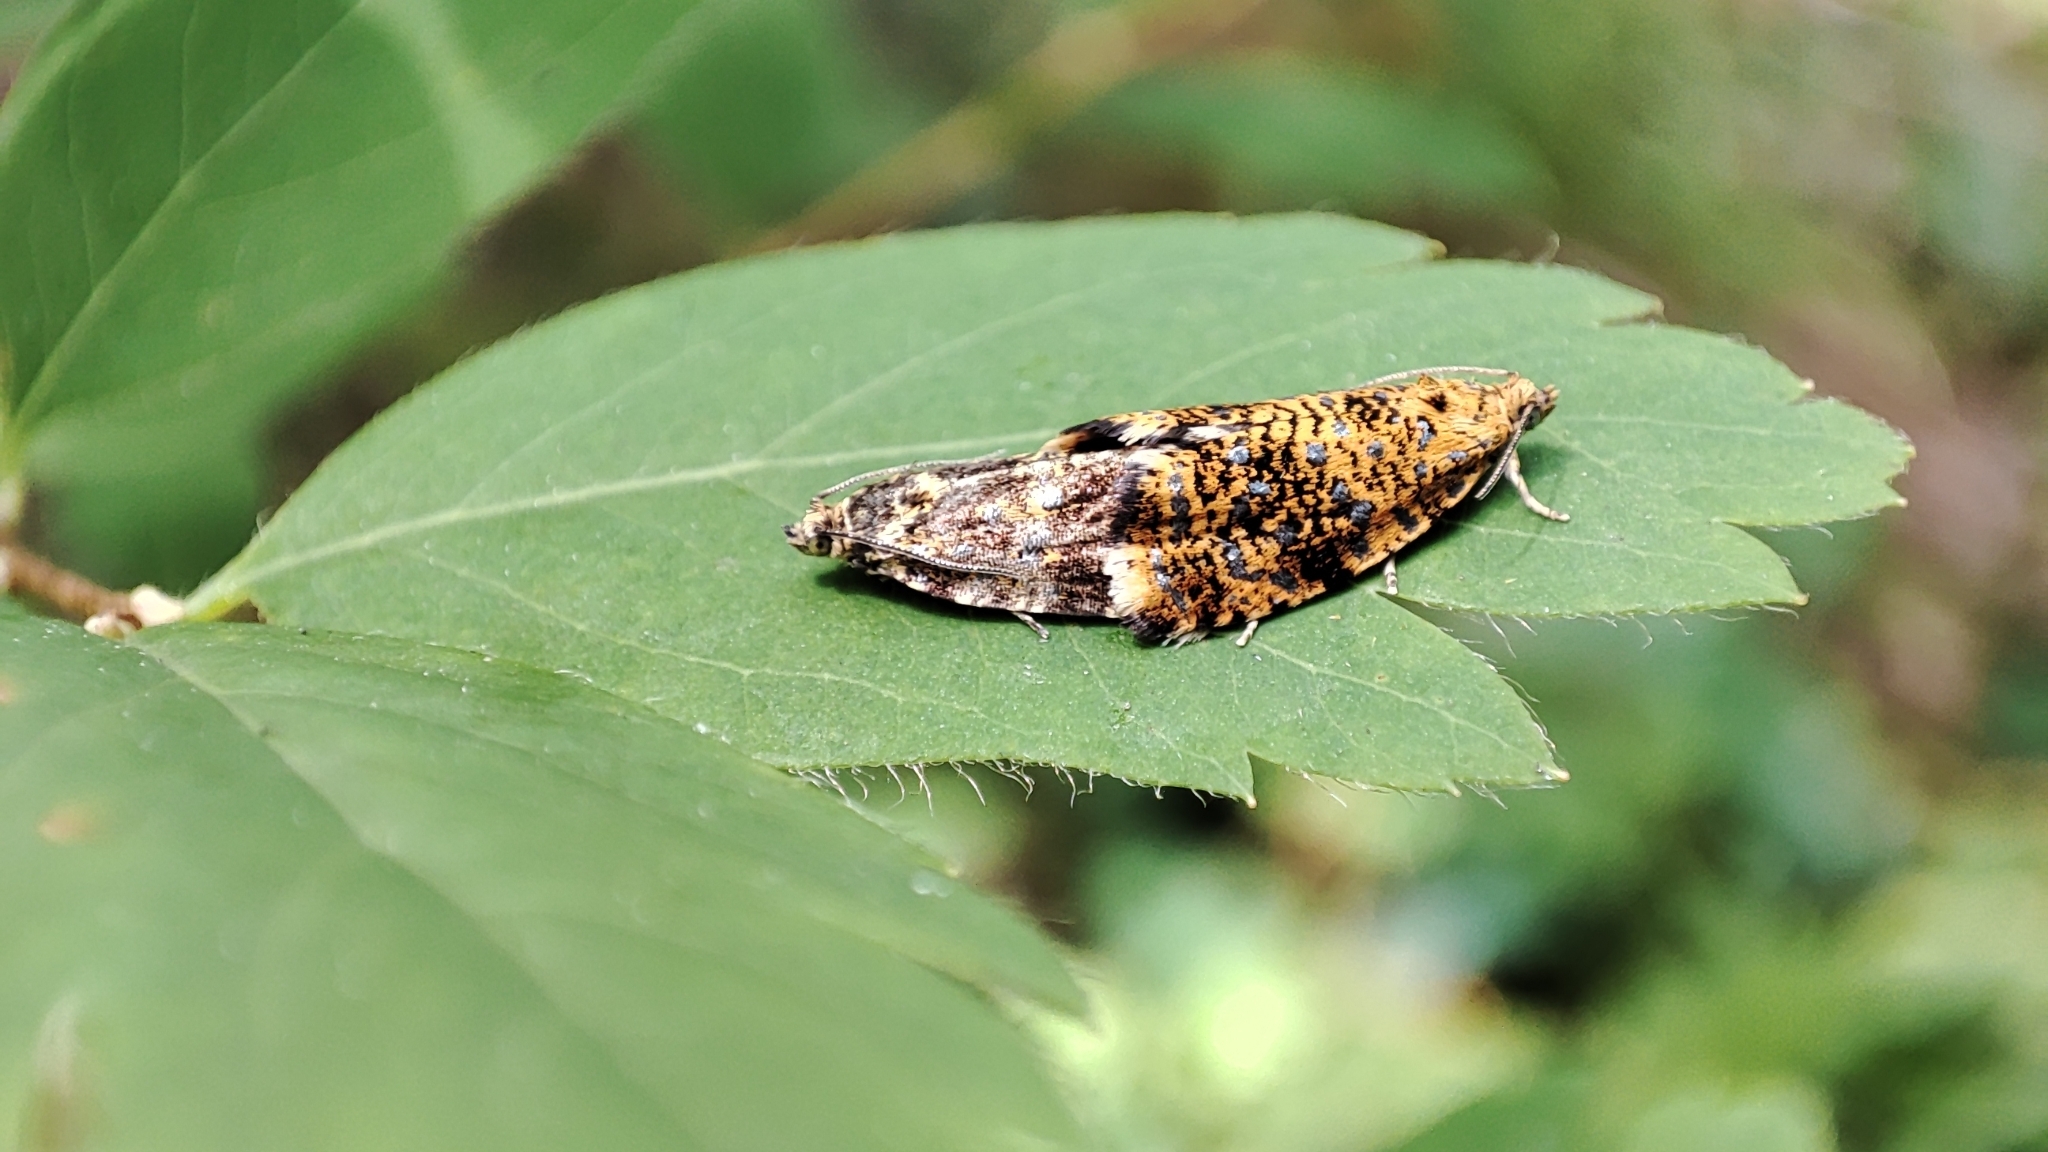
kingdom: Animalia
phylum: Arthropoda
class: Insecta
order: Lepidoptera
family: Tortricidae
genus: Phiaris
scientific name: Phiaris siderana
